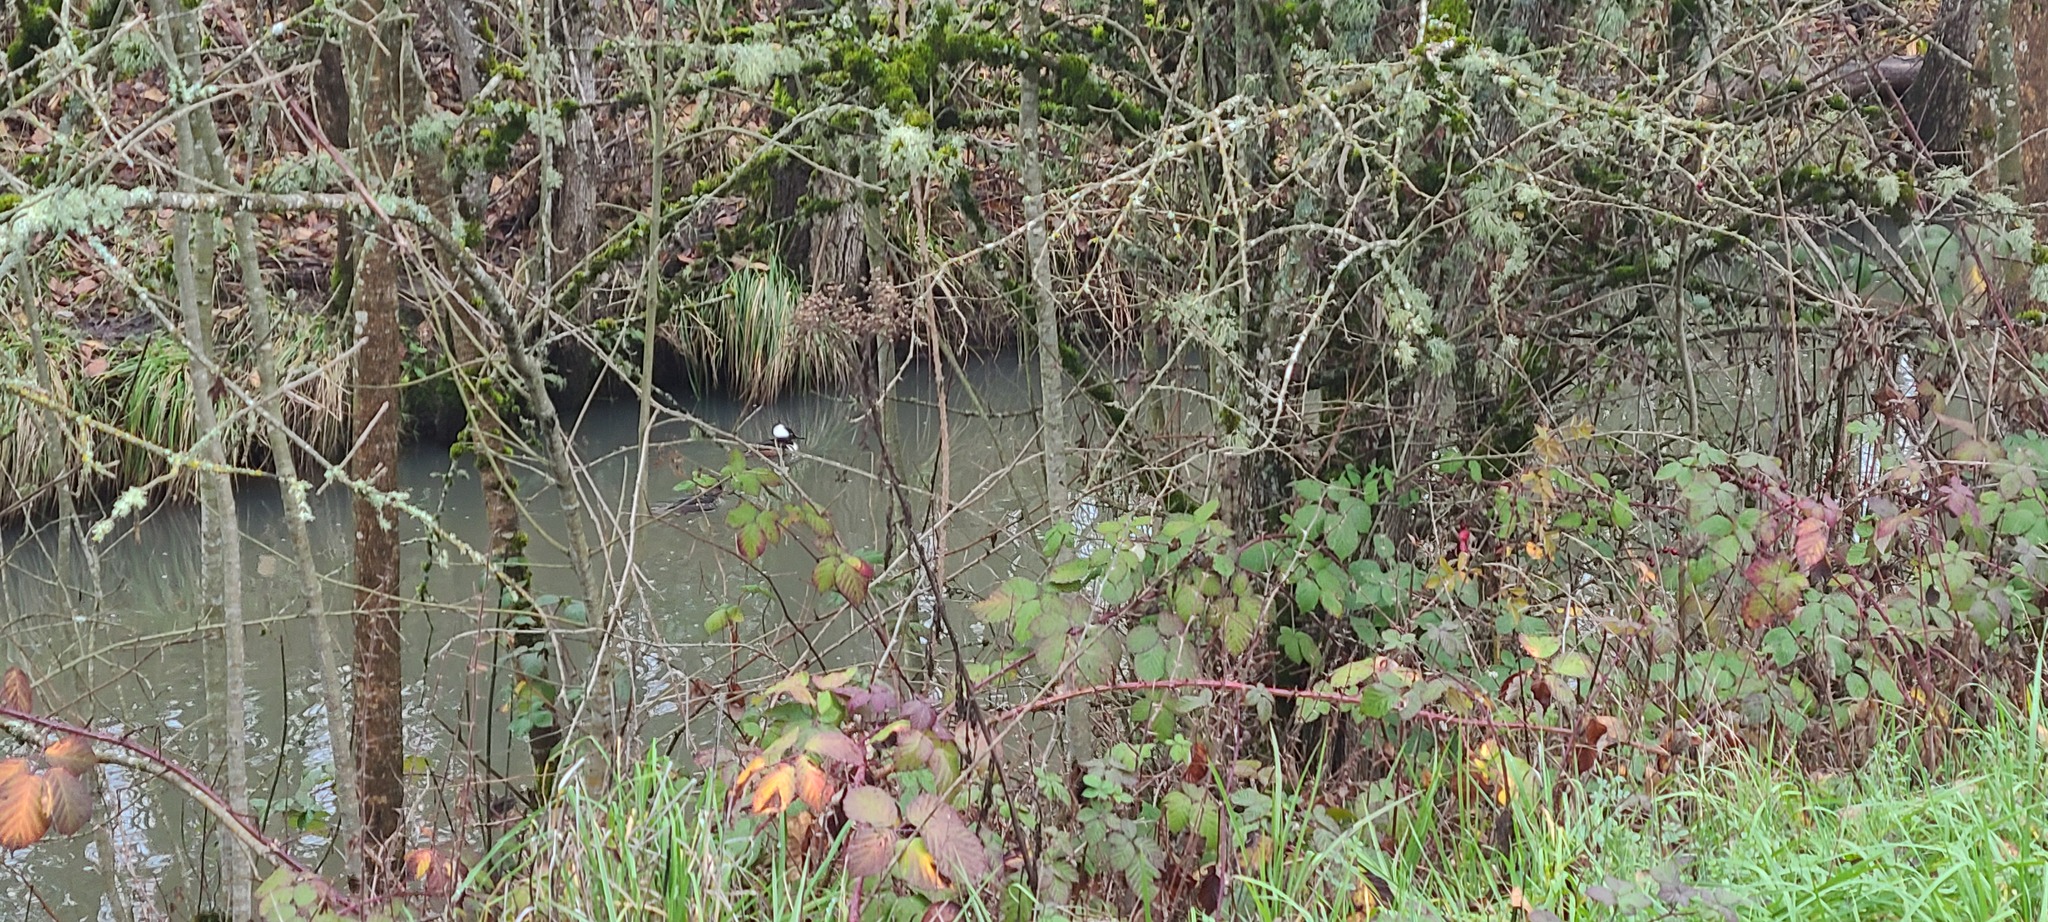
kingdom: Animalia
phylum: Chordata
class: Aves
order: Anseriformes
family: Anatidae
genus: Lophodytes
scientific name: Lophodytes cucullatus
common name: Hooded merganser
